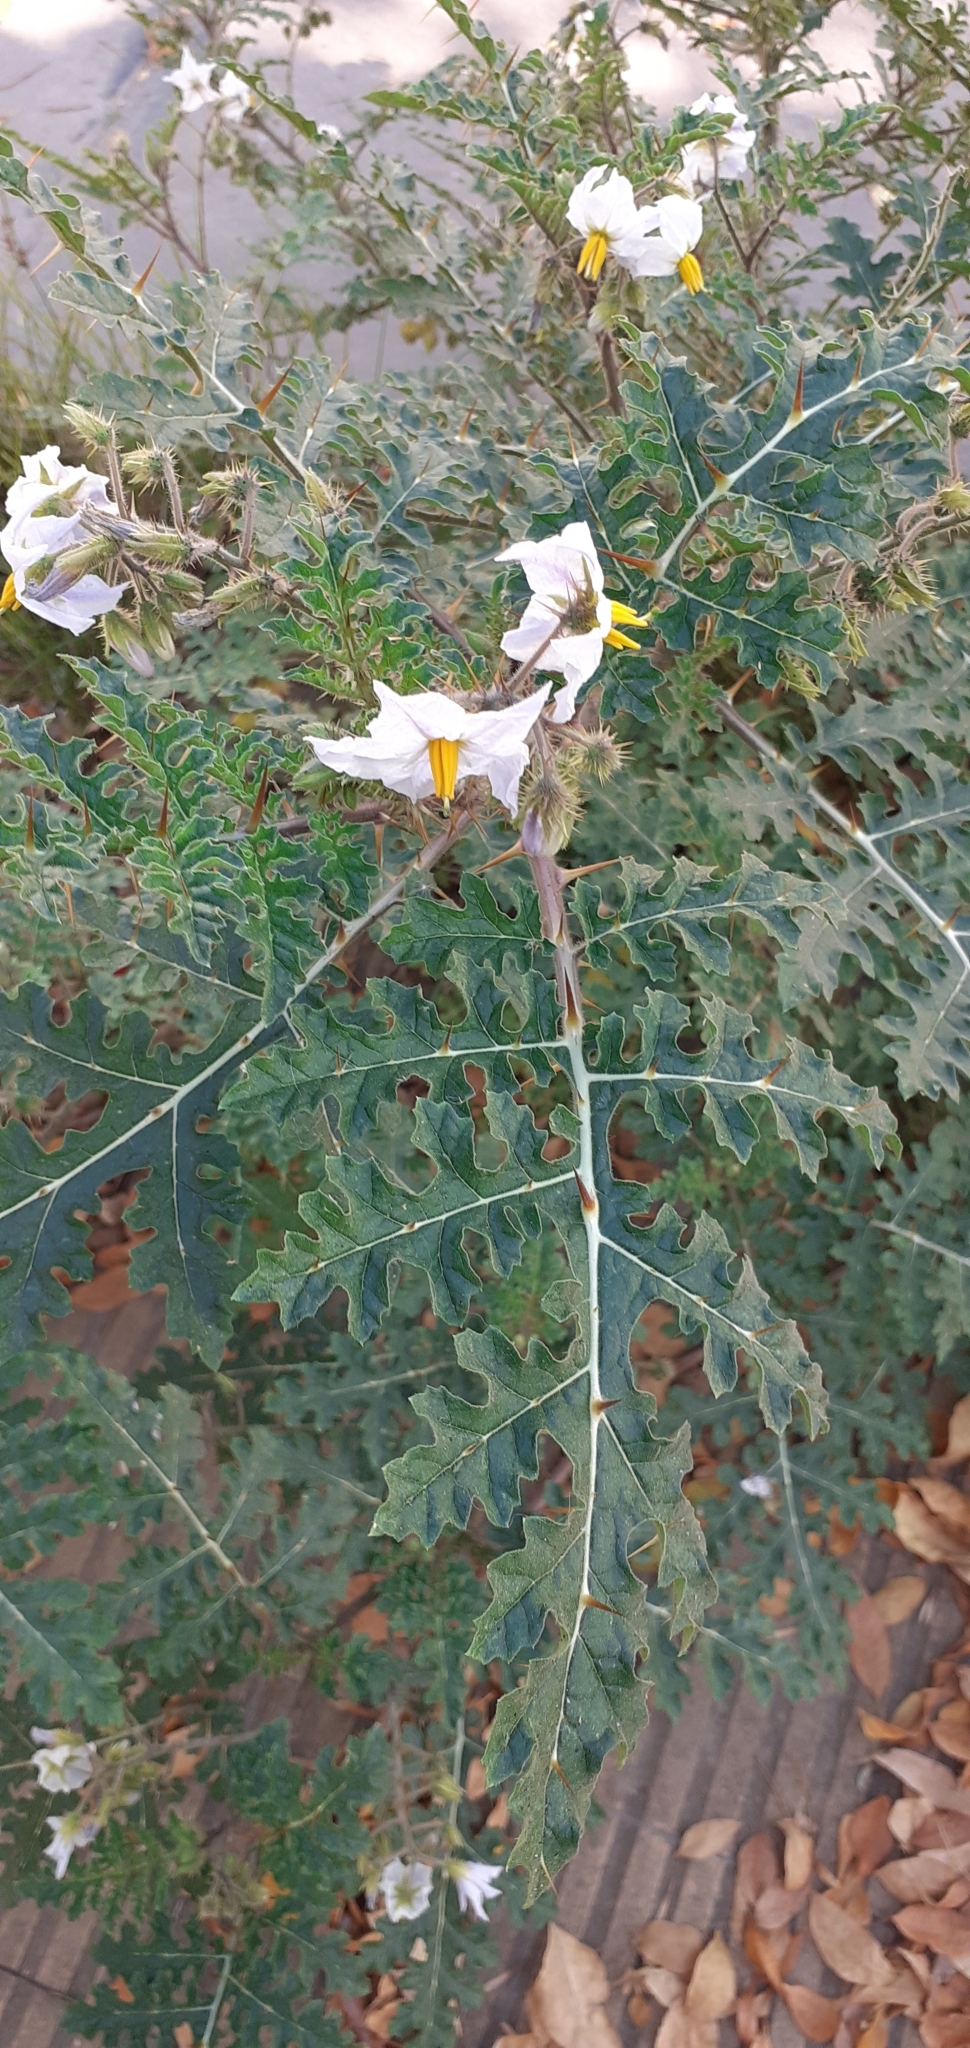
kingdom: Plantae
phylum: Tracheophyta
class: Magnoliopsida
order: Solanales
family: Solanaceae
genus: Solanum
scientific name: Solanum sisymbriifolium
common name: Red buffalo-bur
